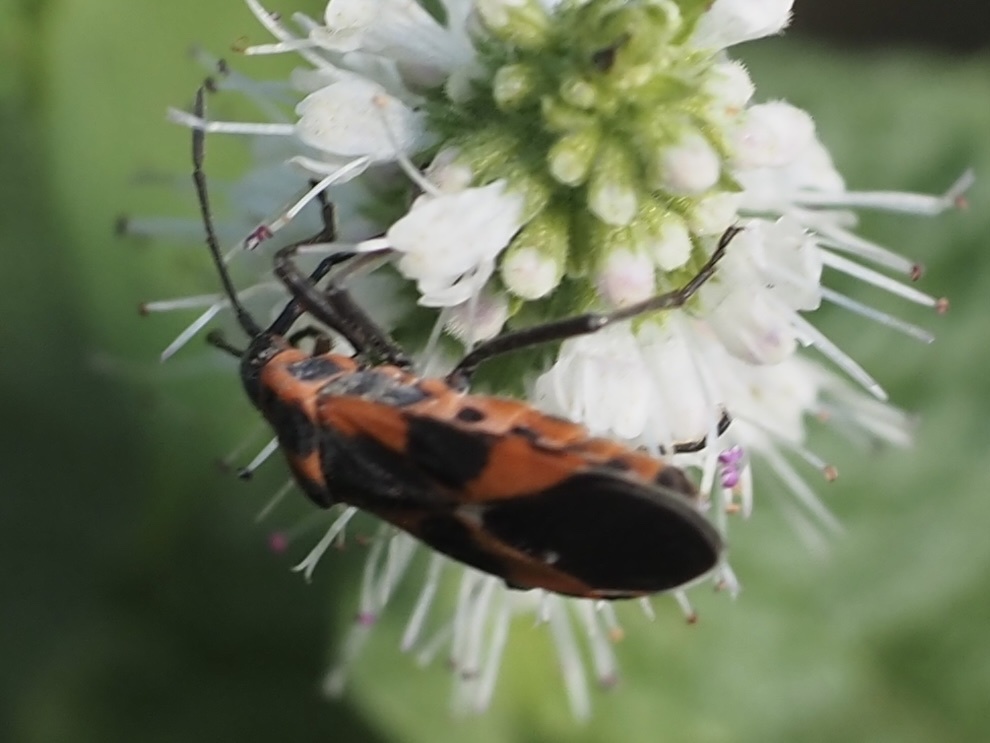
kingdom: Animalia
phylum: Arthropoda
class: Insecta
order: Hemiptera
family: Lygaeidae
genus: Tropidothorax
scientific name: Tropidothorax leucopterus
